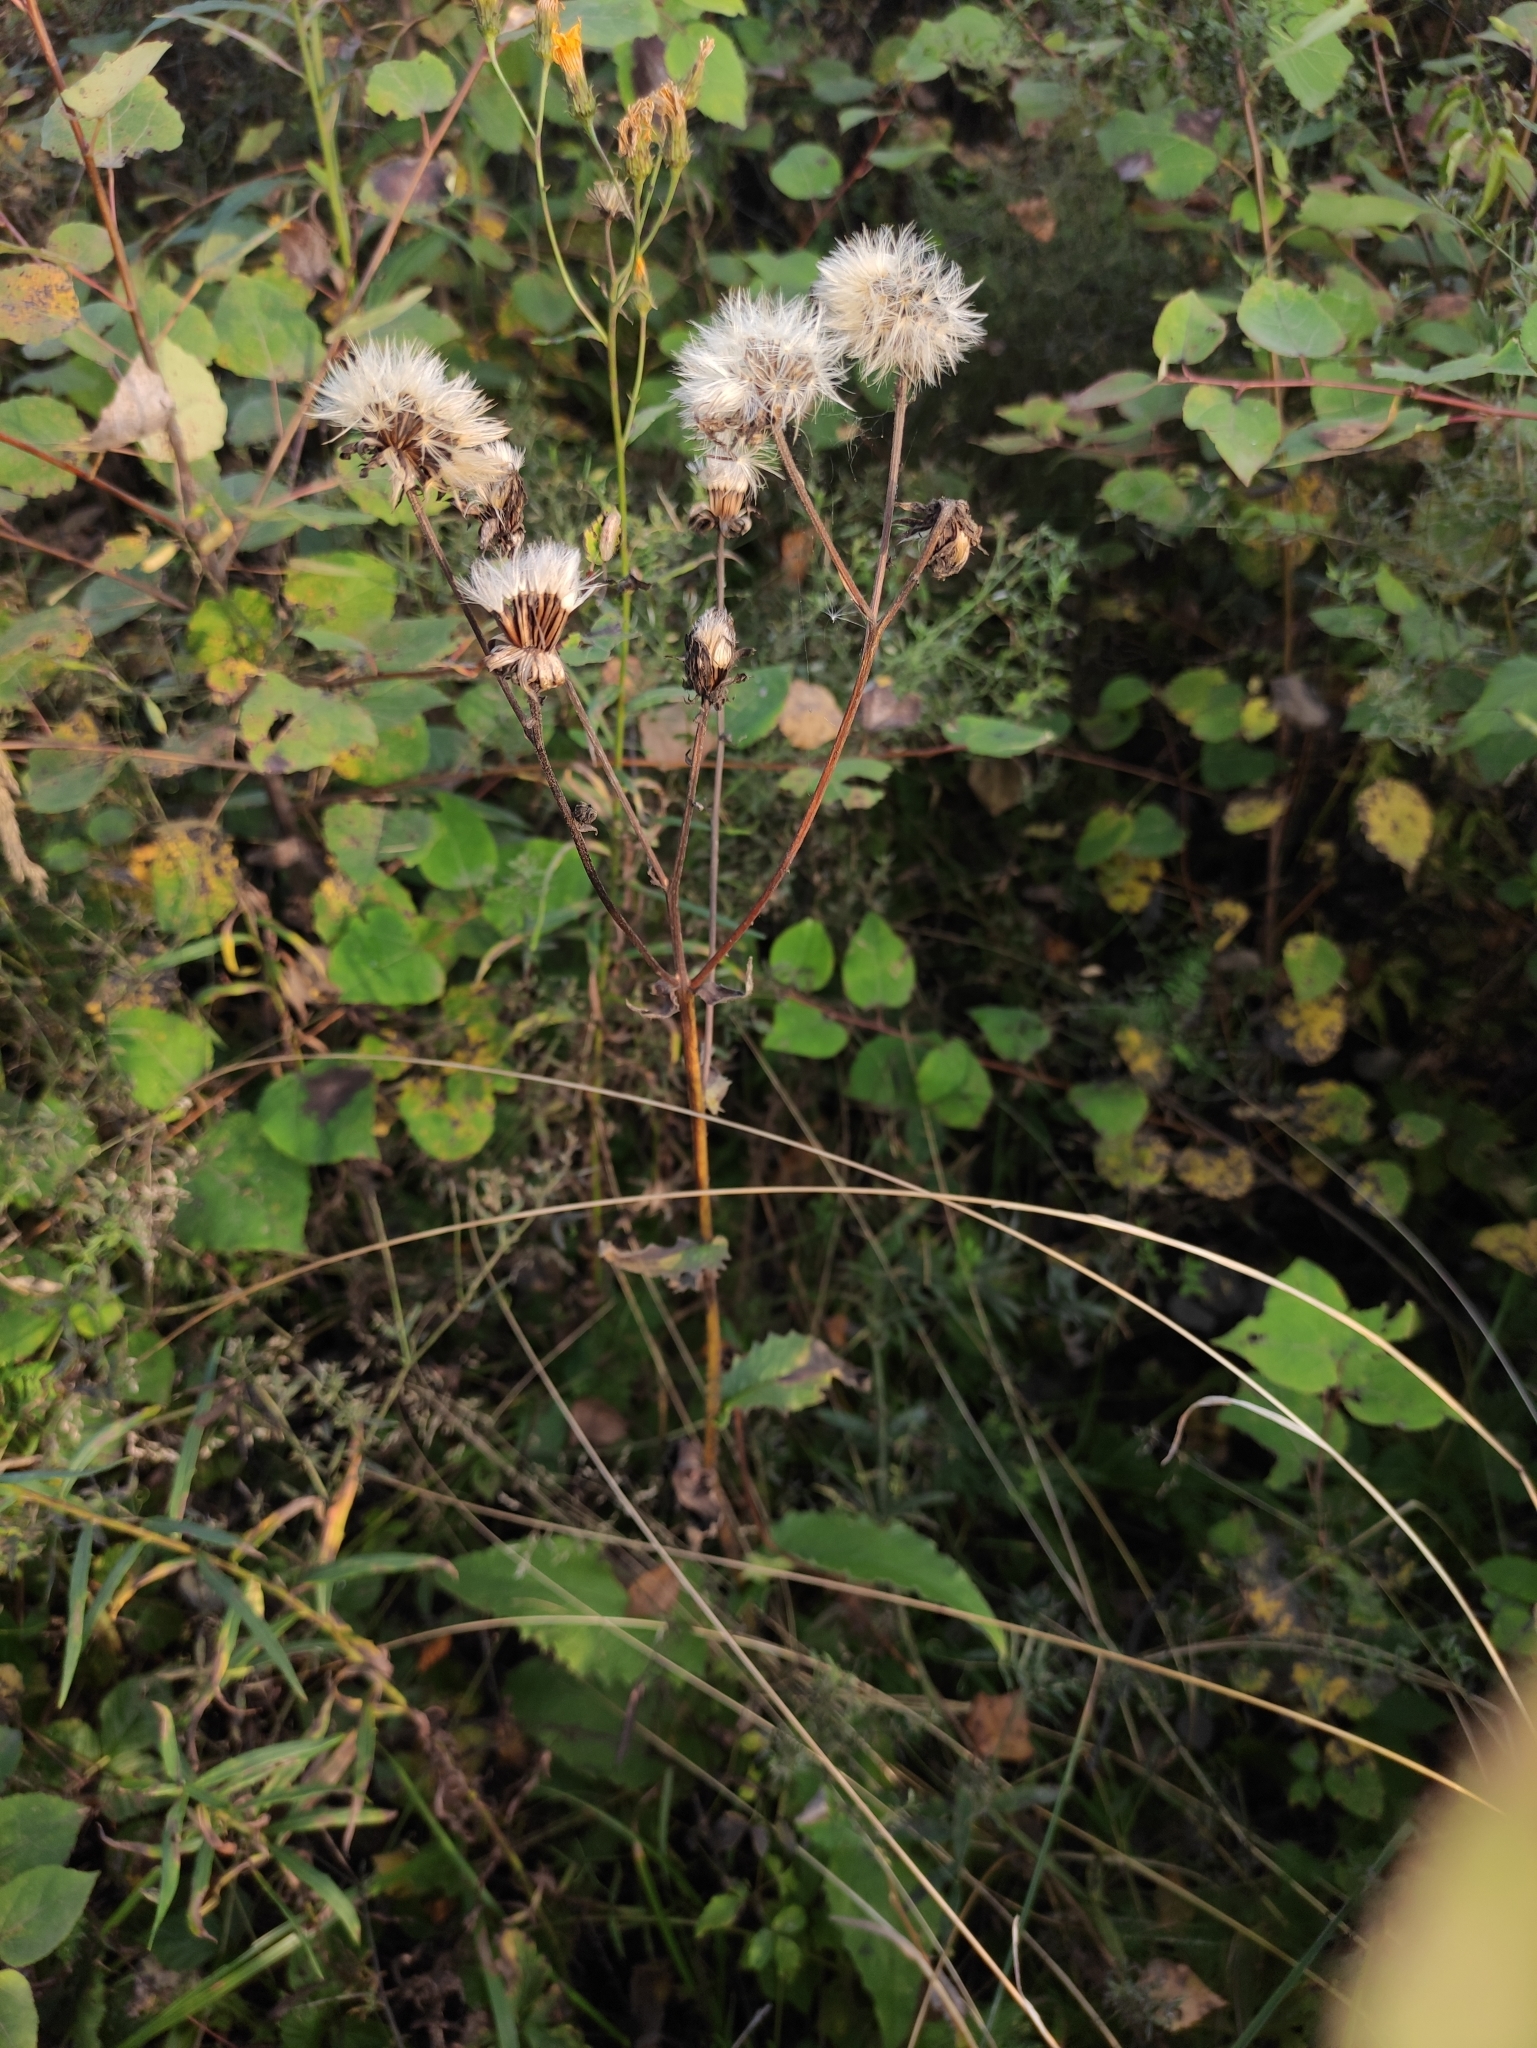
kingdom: Plantae
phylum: Tracheophyta
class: Magnoliopsida
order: Asterales
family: Asteraceae
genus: Crepis
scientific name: Crepis sibirica
